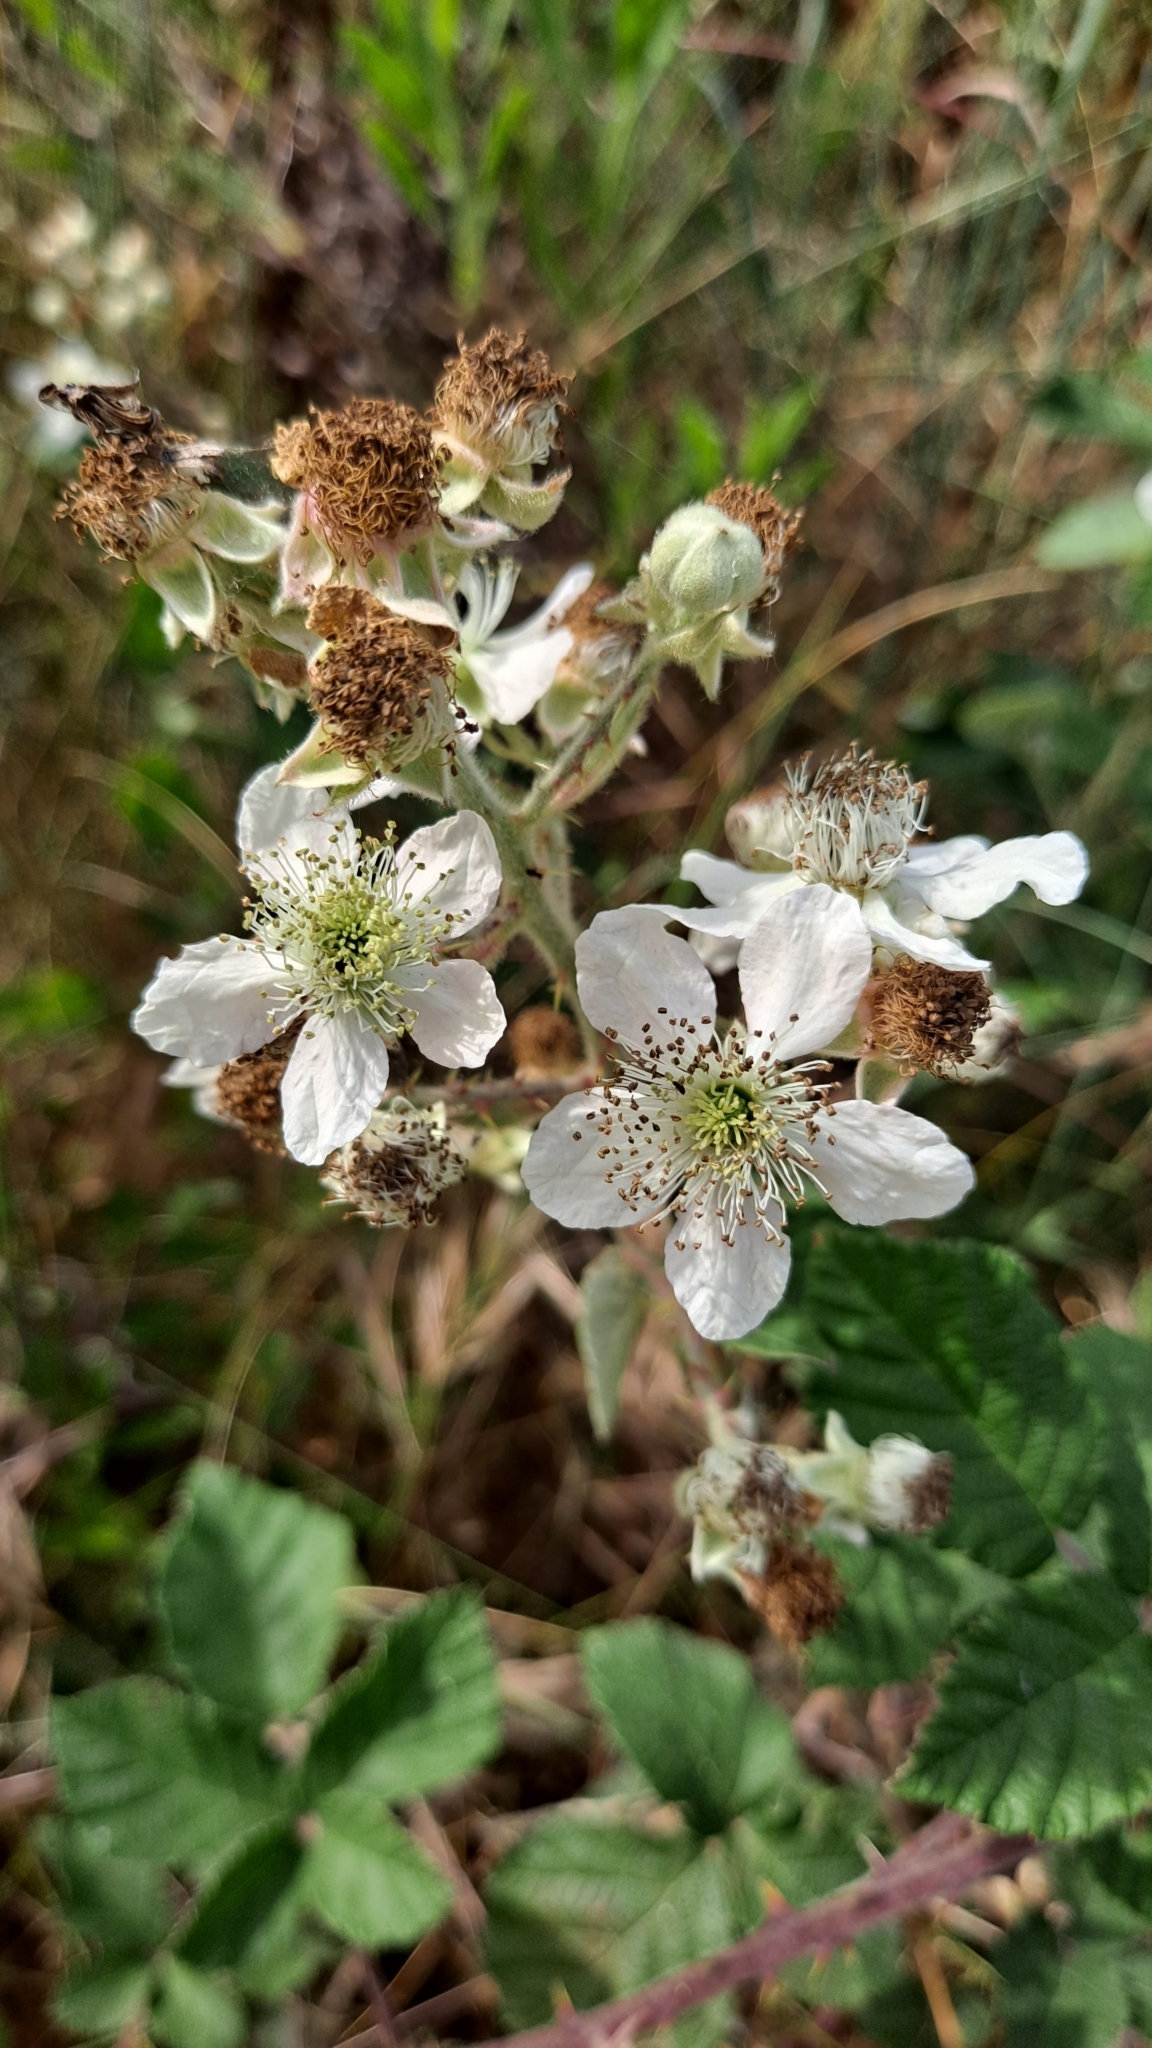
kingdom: Plantae
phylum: Tracheophyta
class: Magnoliopsida
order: Rosales
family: Rosaceae
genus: Rubus
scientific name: Rubus ulmifolius
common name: Elmleaf blackberry
